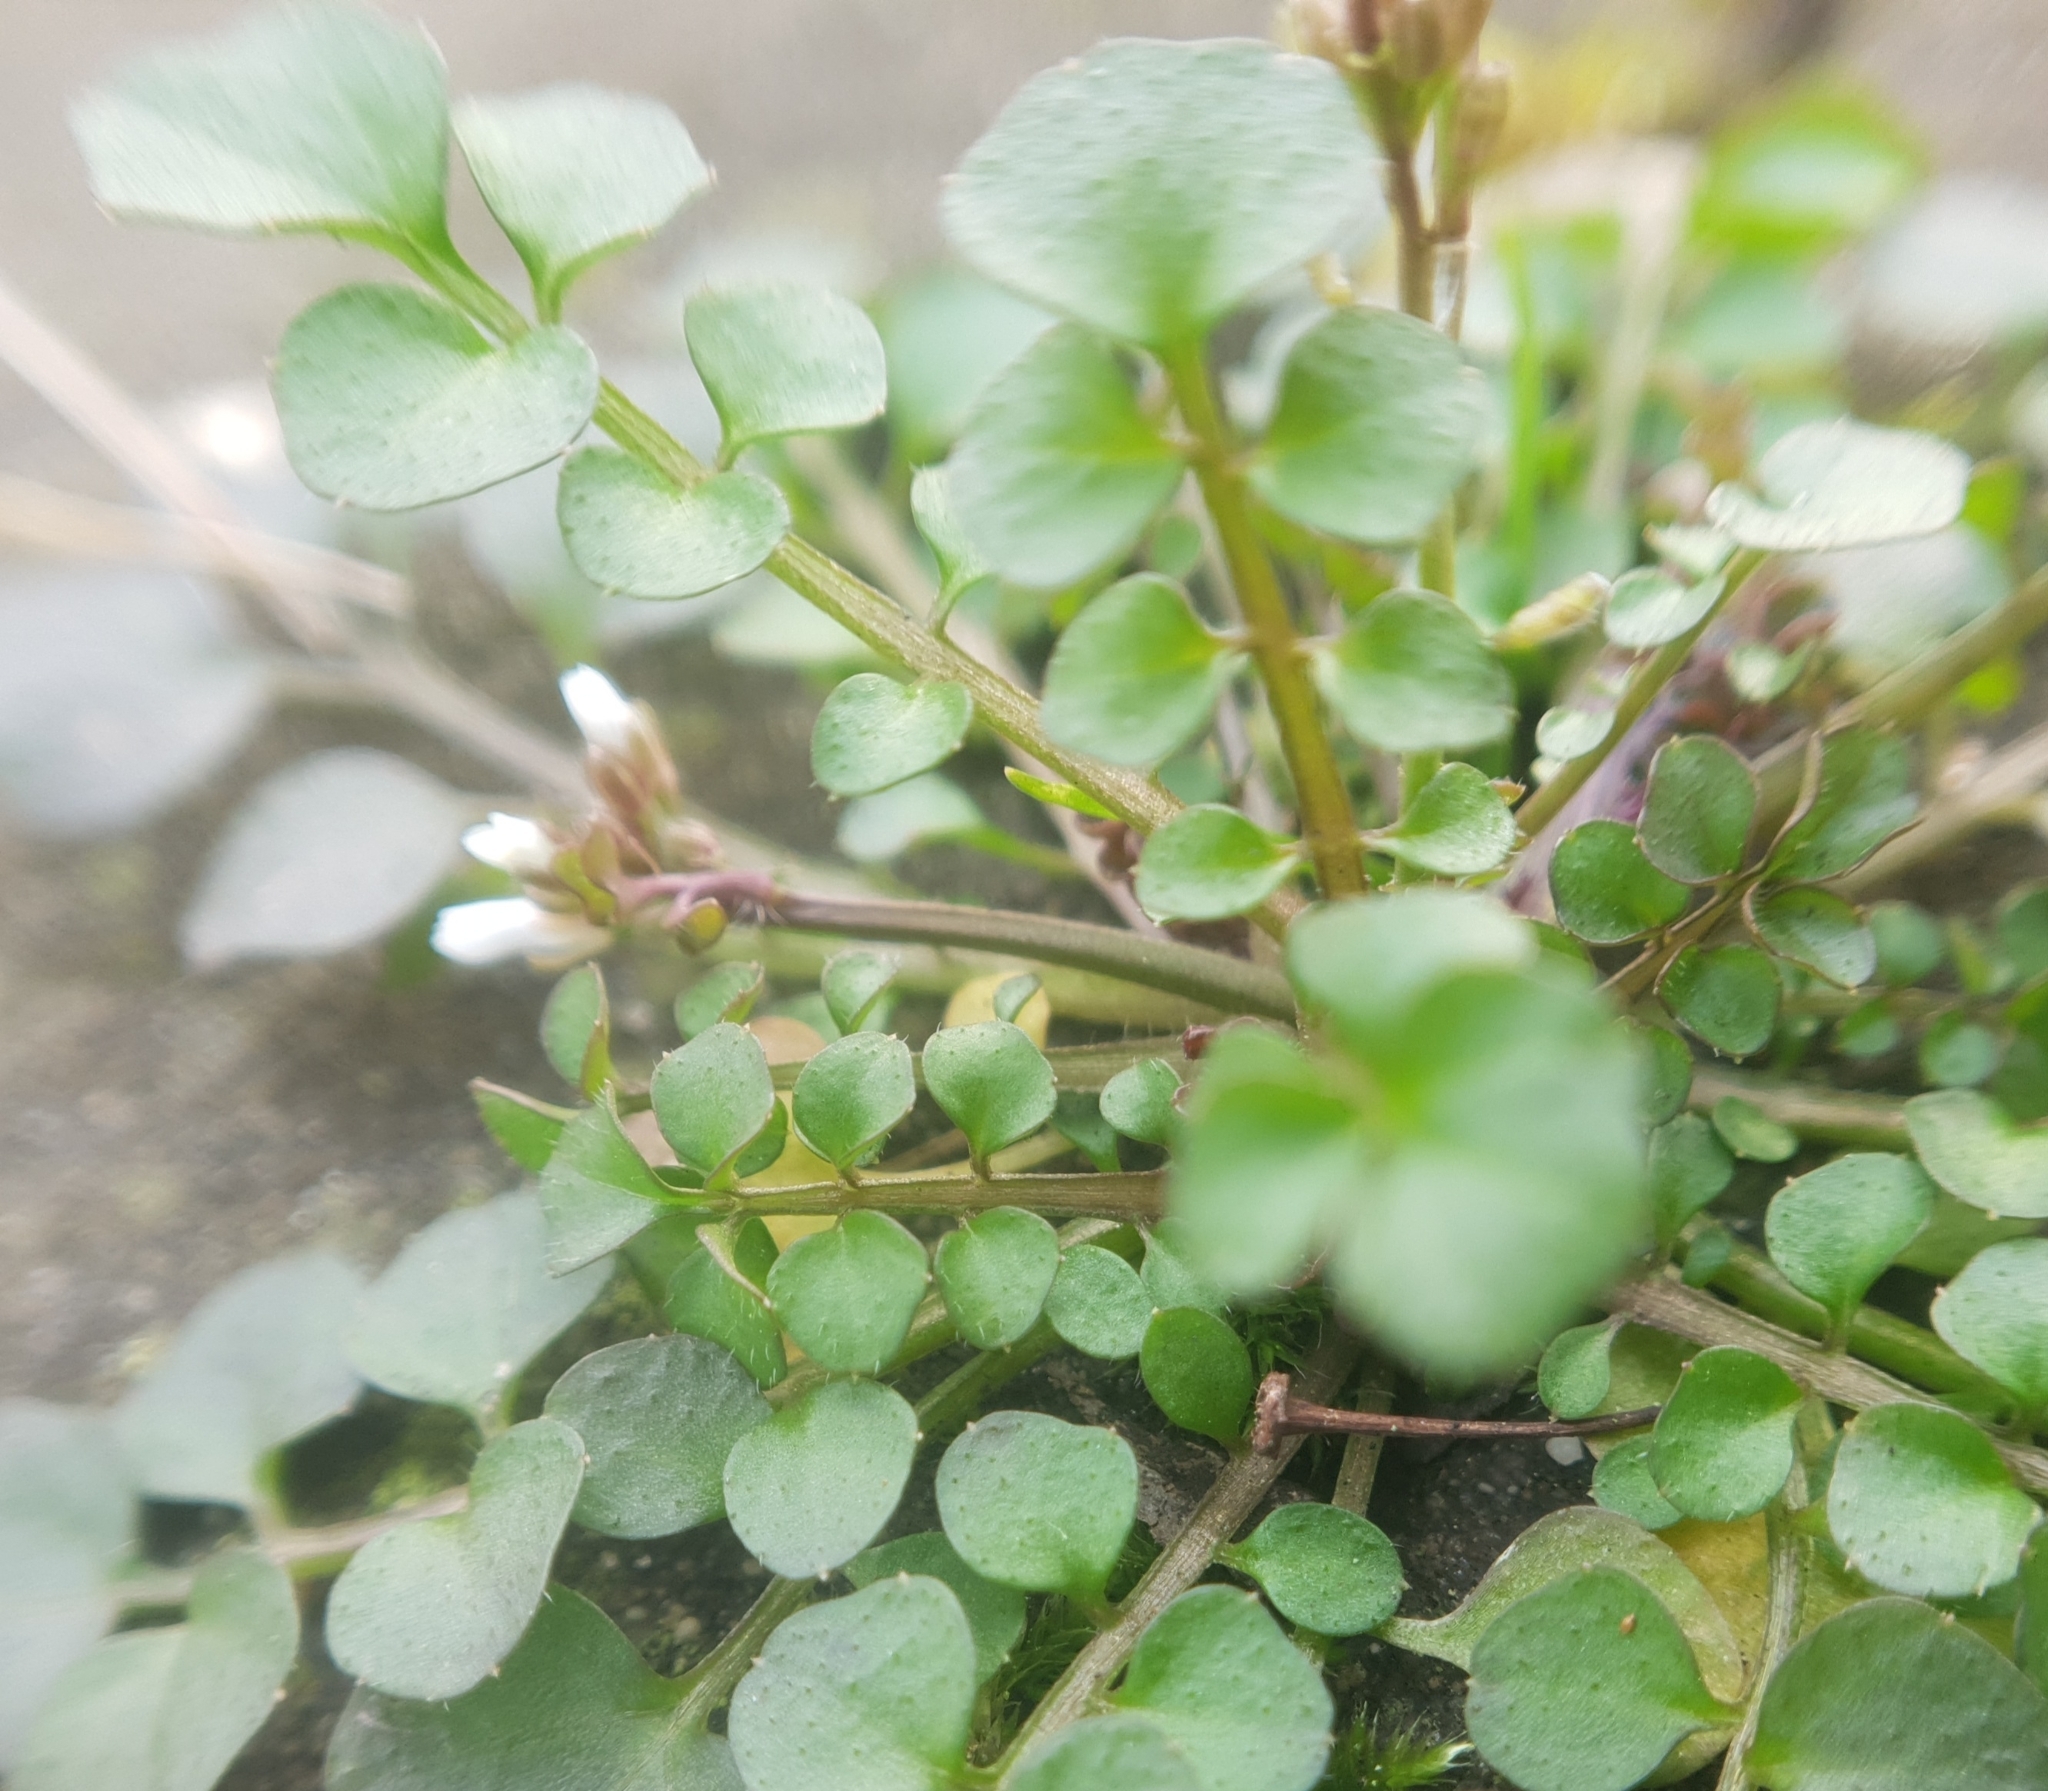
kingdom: Plantae
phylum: Tracheophyta
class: Magnoliopsida
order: Brassicales
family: Brassicaceae
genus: Cardamine
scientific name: Cardamine hirsuta
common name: Hairy bittercress
